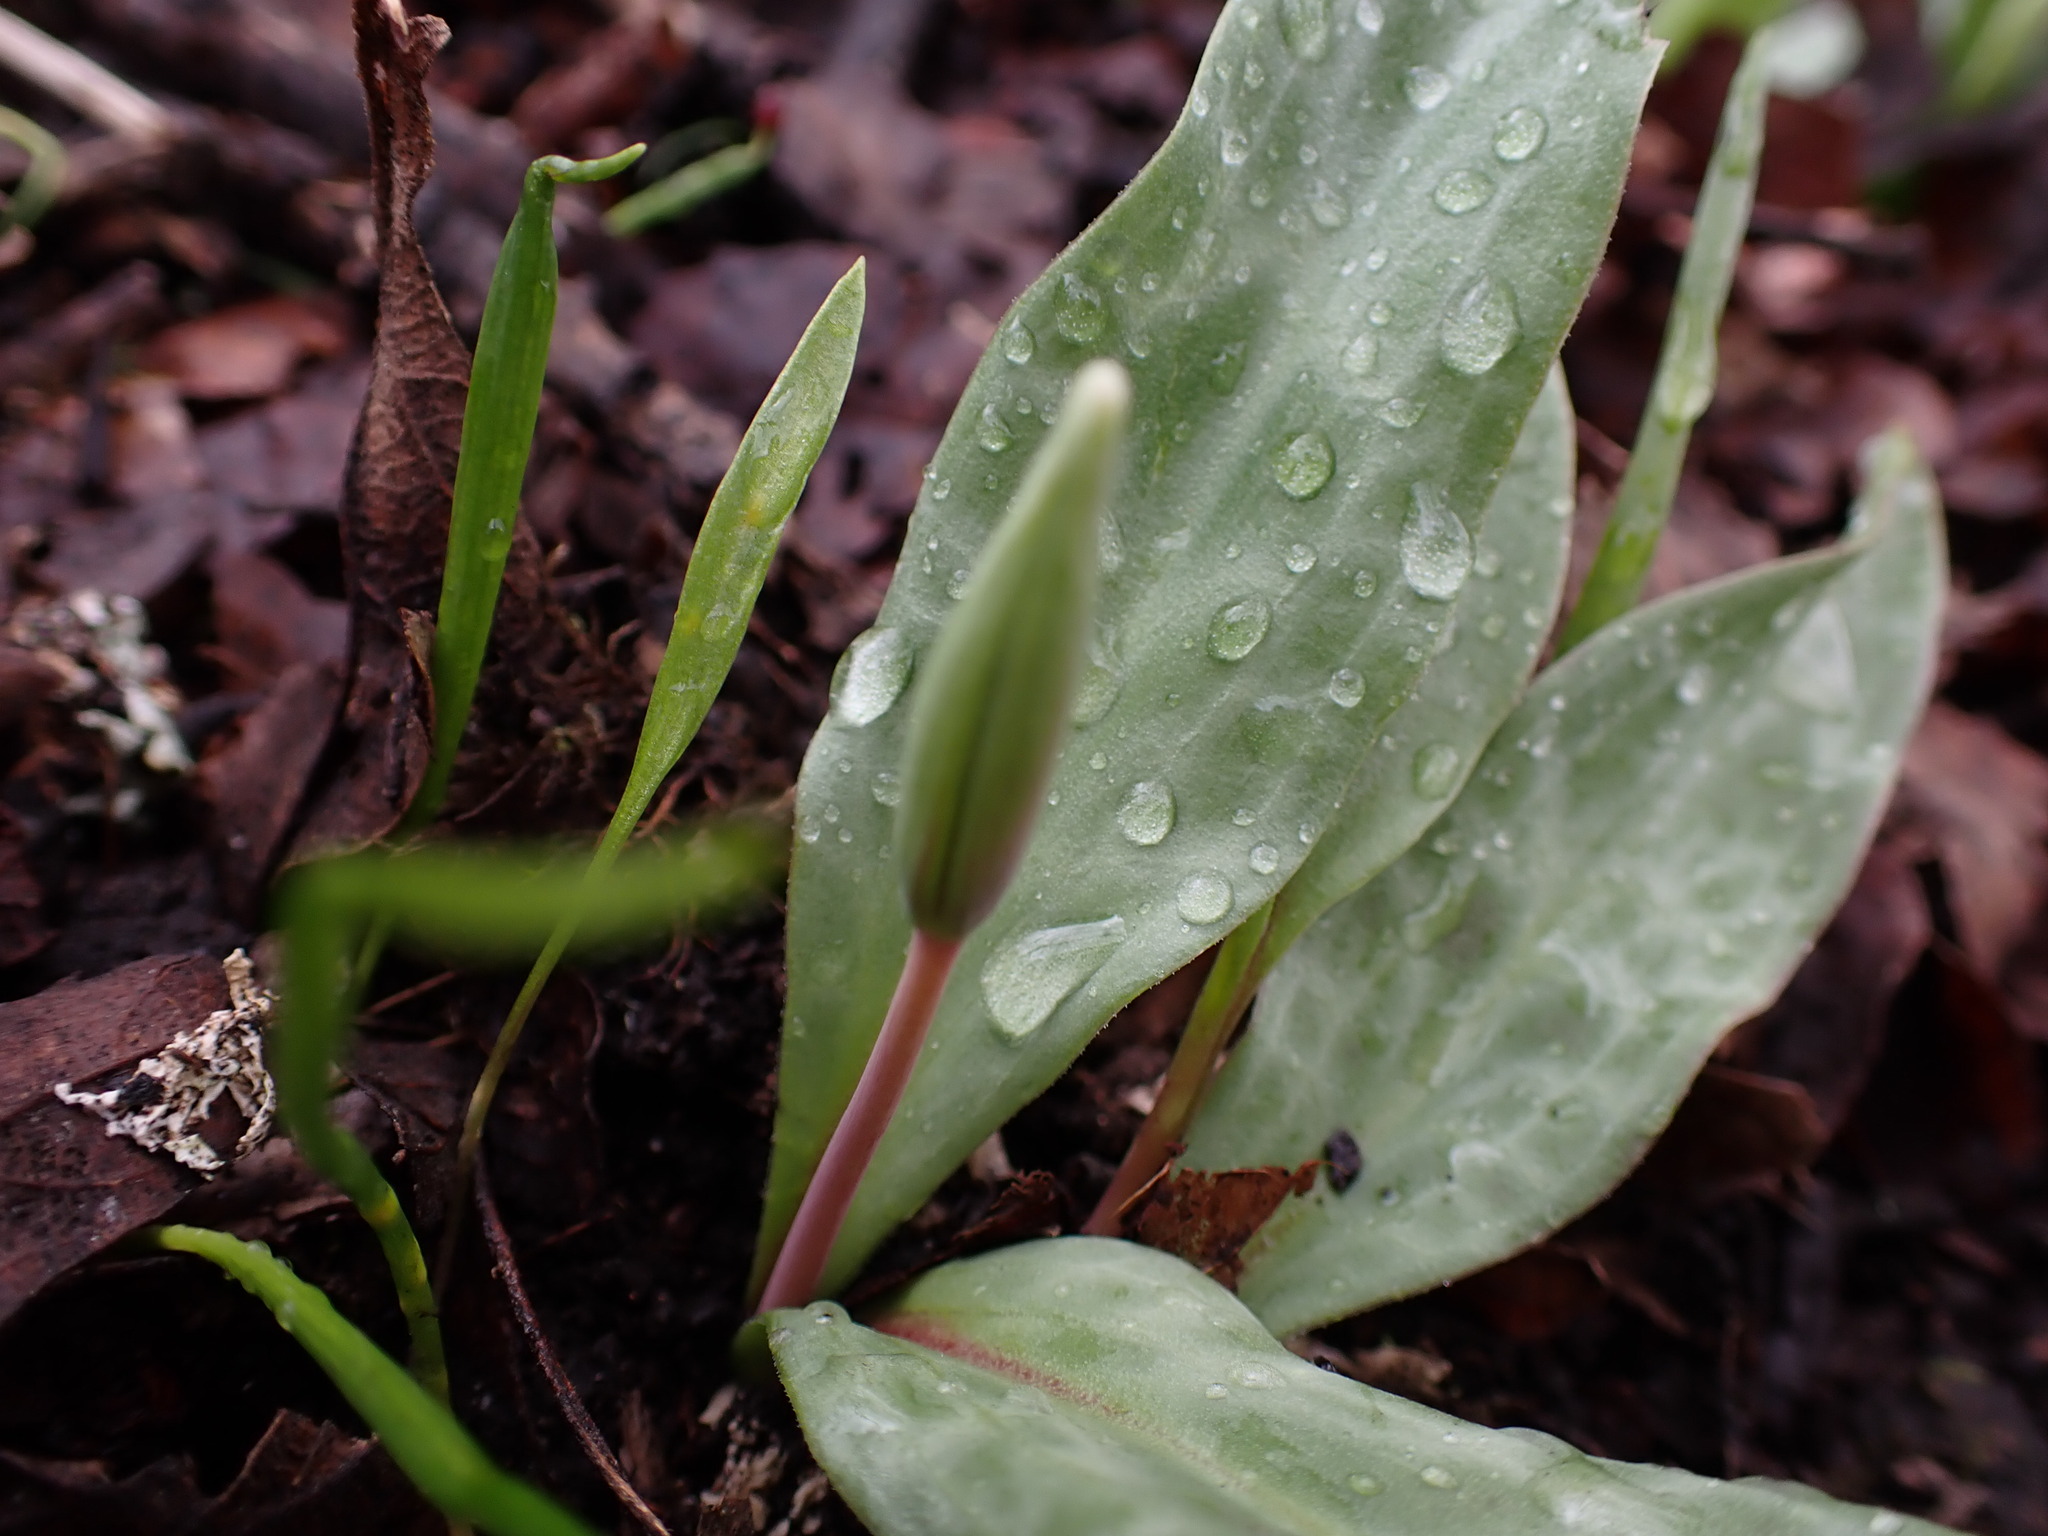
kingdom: Plantae
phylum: Tracheophyta
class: Liliopsida
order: Liliales
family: Liliaceae
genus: Erythronium
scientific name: Erythronium oregonum
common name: Giant adder's-tongue
